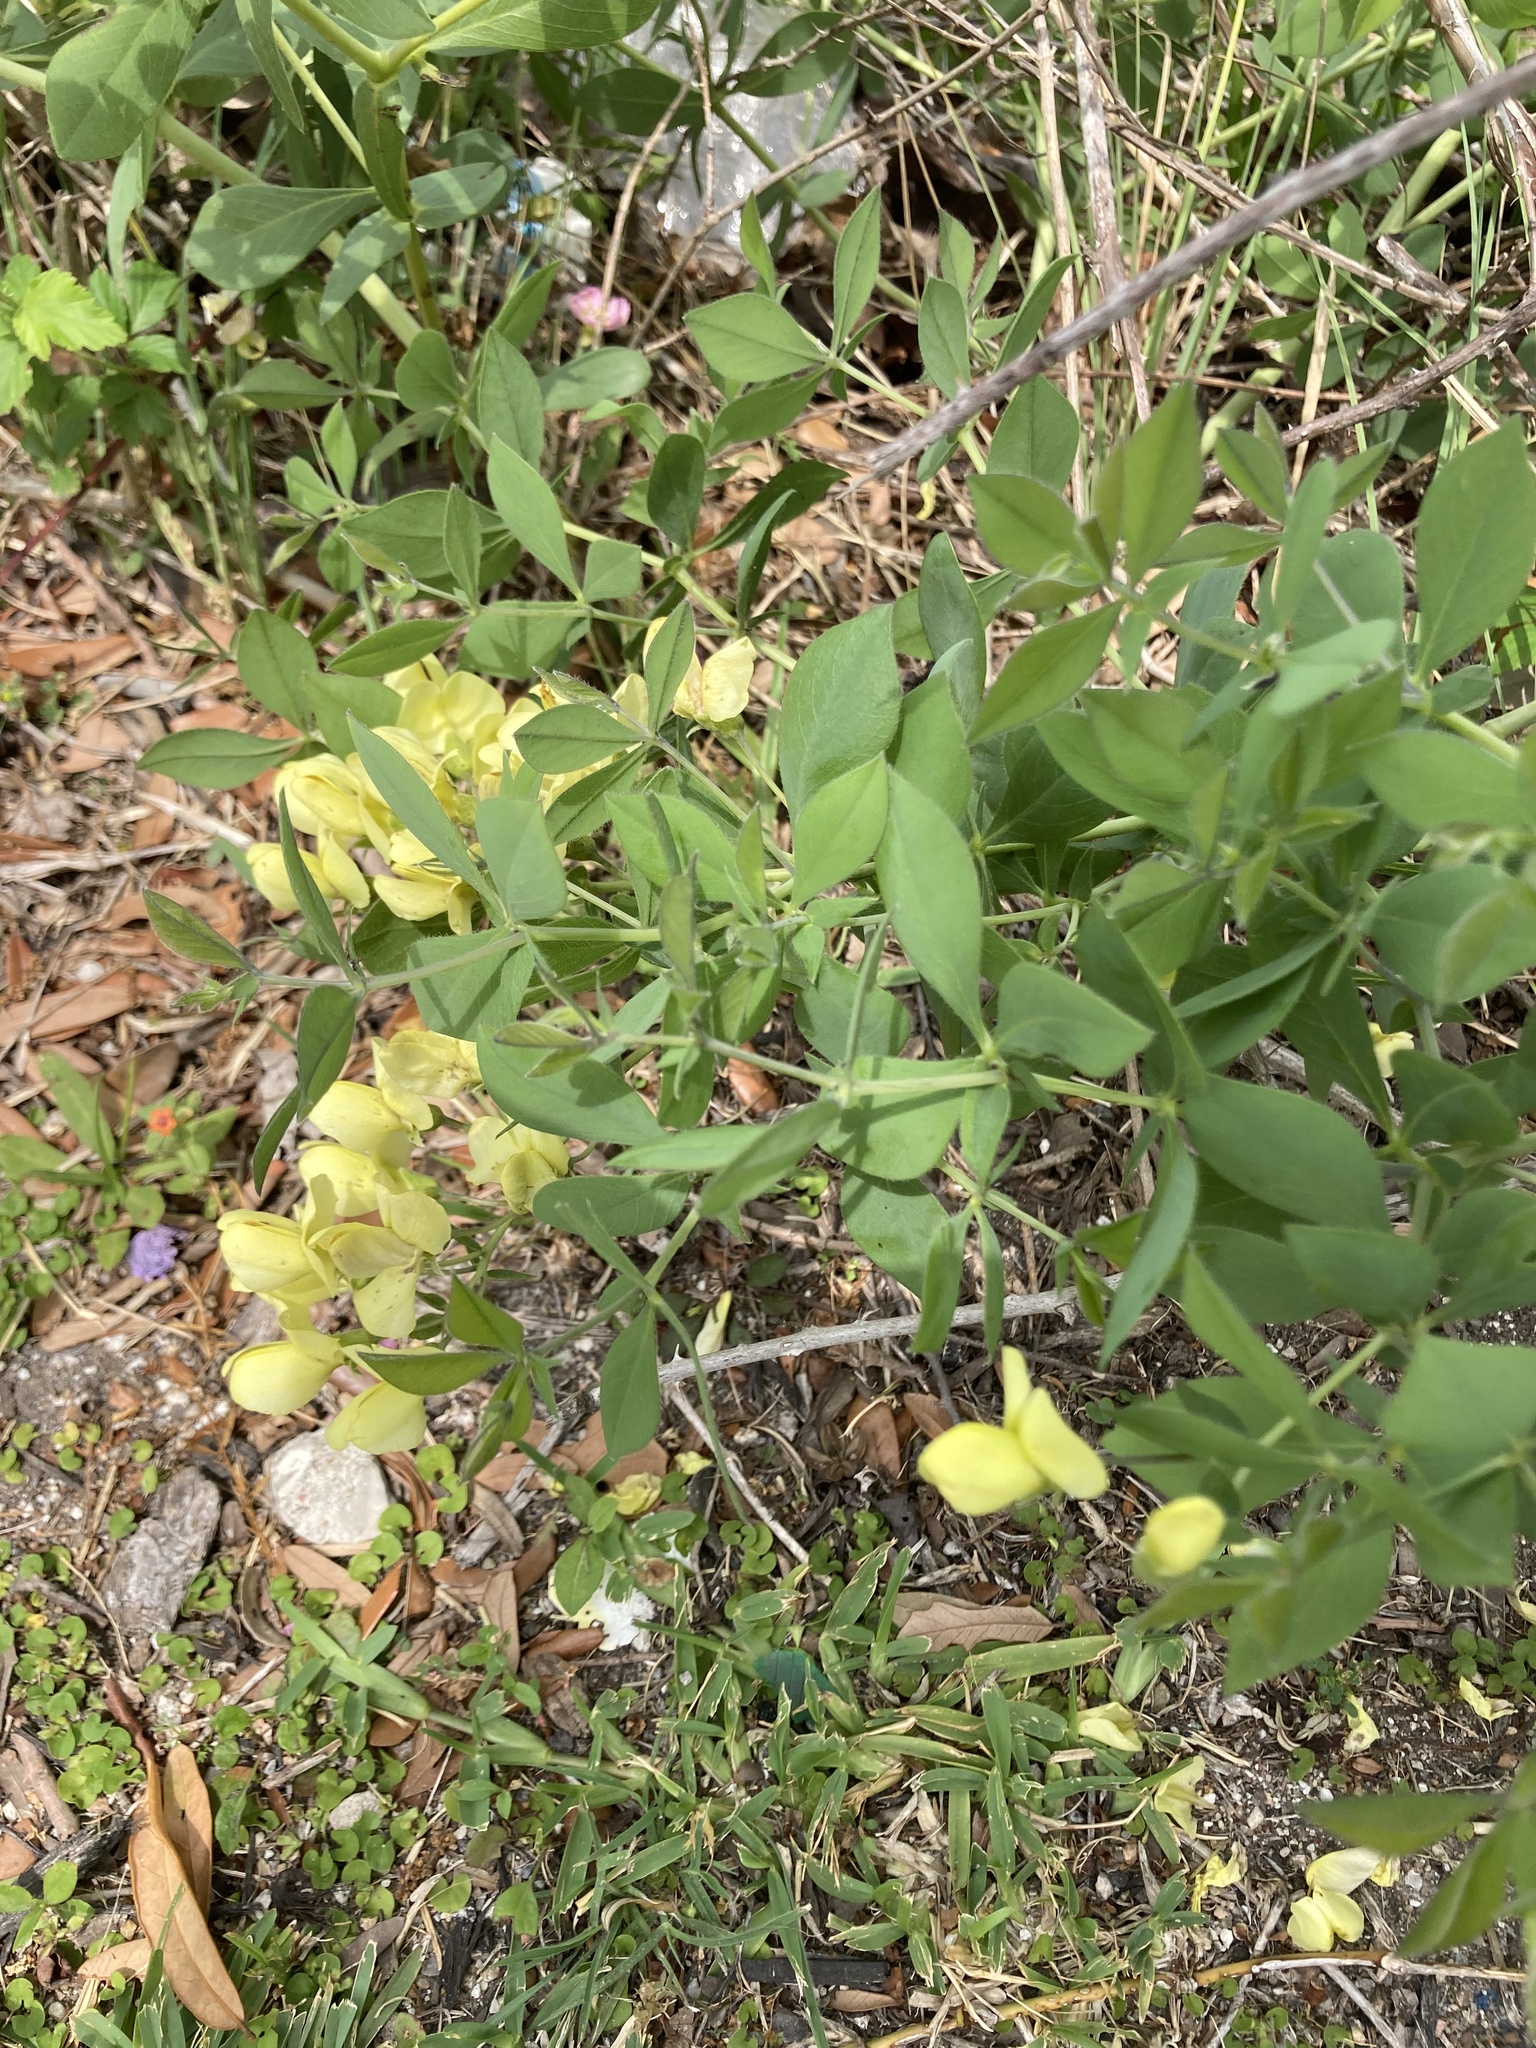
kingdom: Plantae
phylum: Tracheophyta
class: Magnoliopsida
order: Fabales
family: Fabaceae
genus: Baptisia
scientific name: Baptisia bracteata
